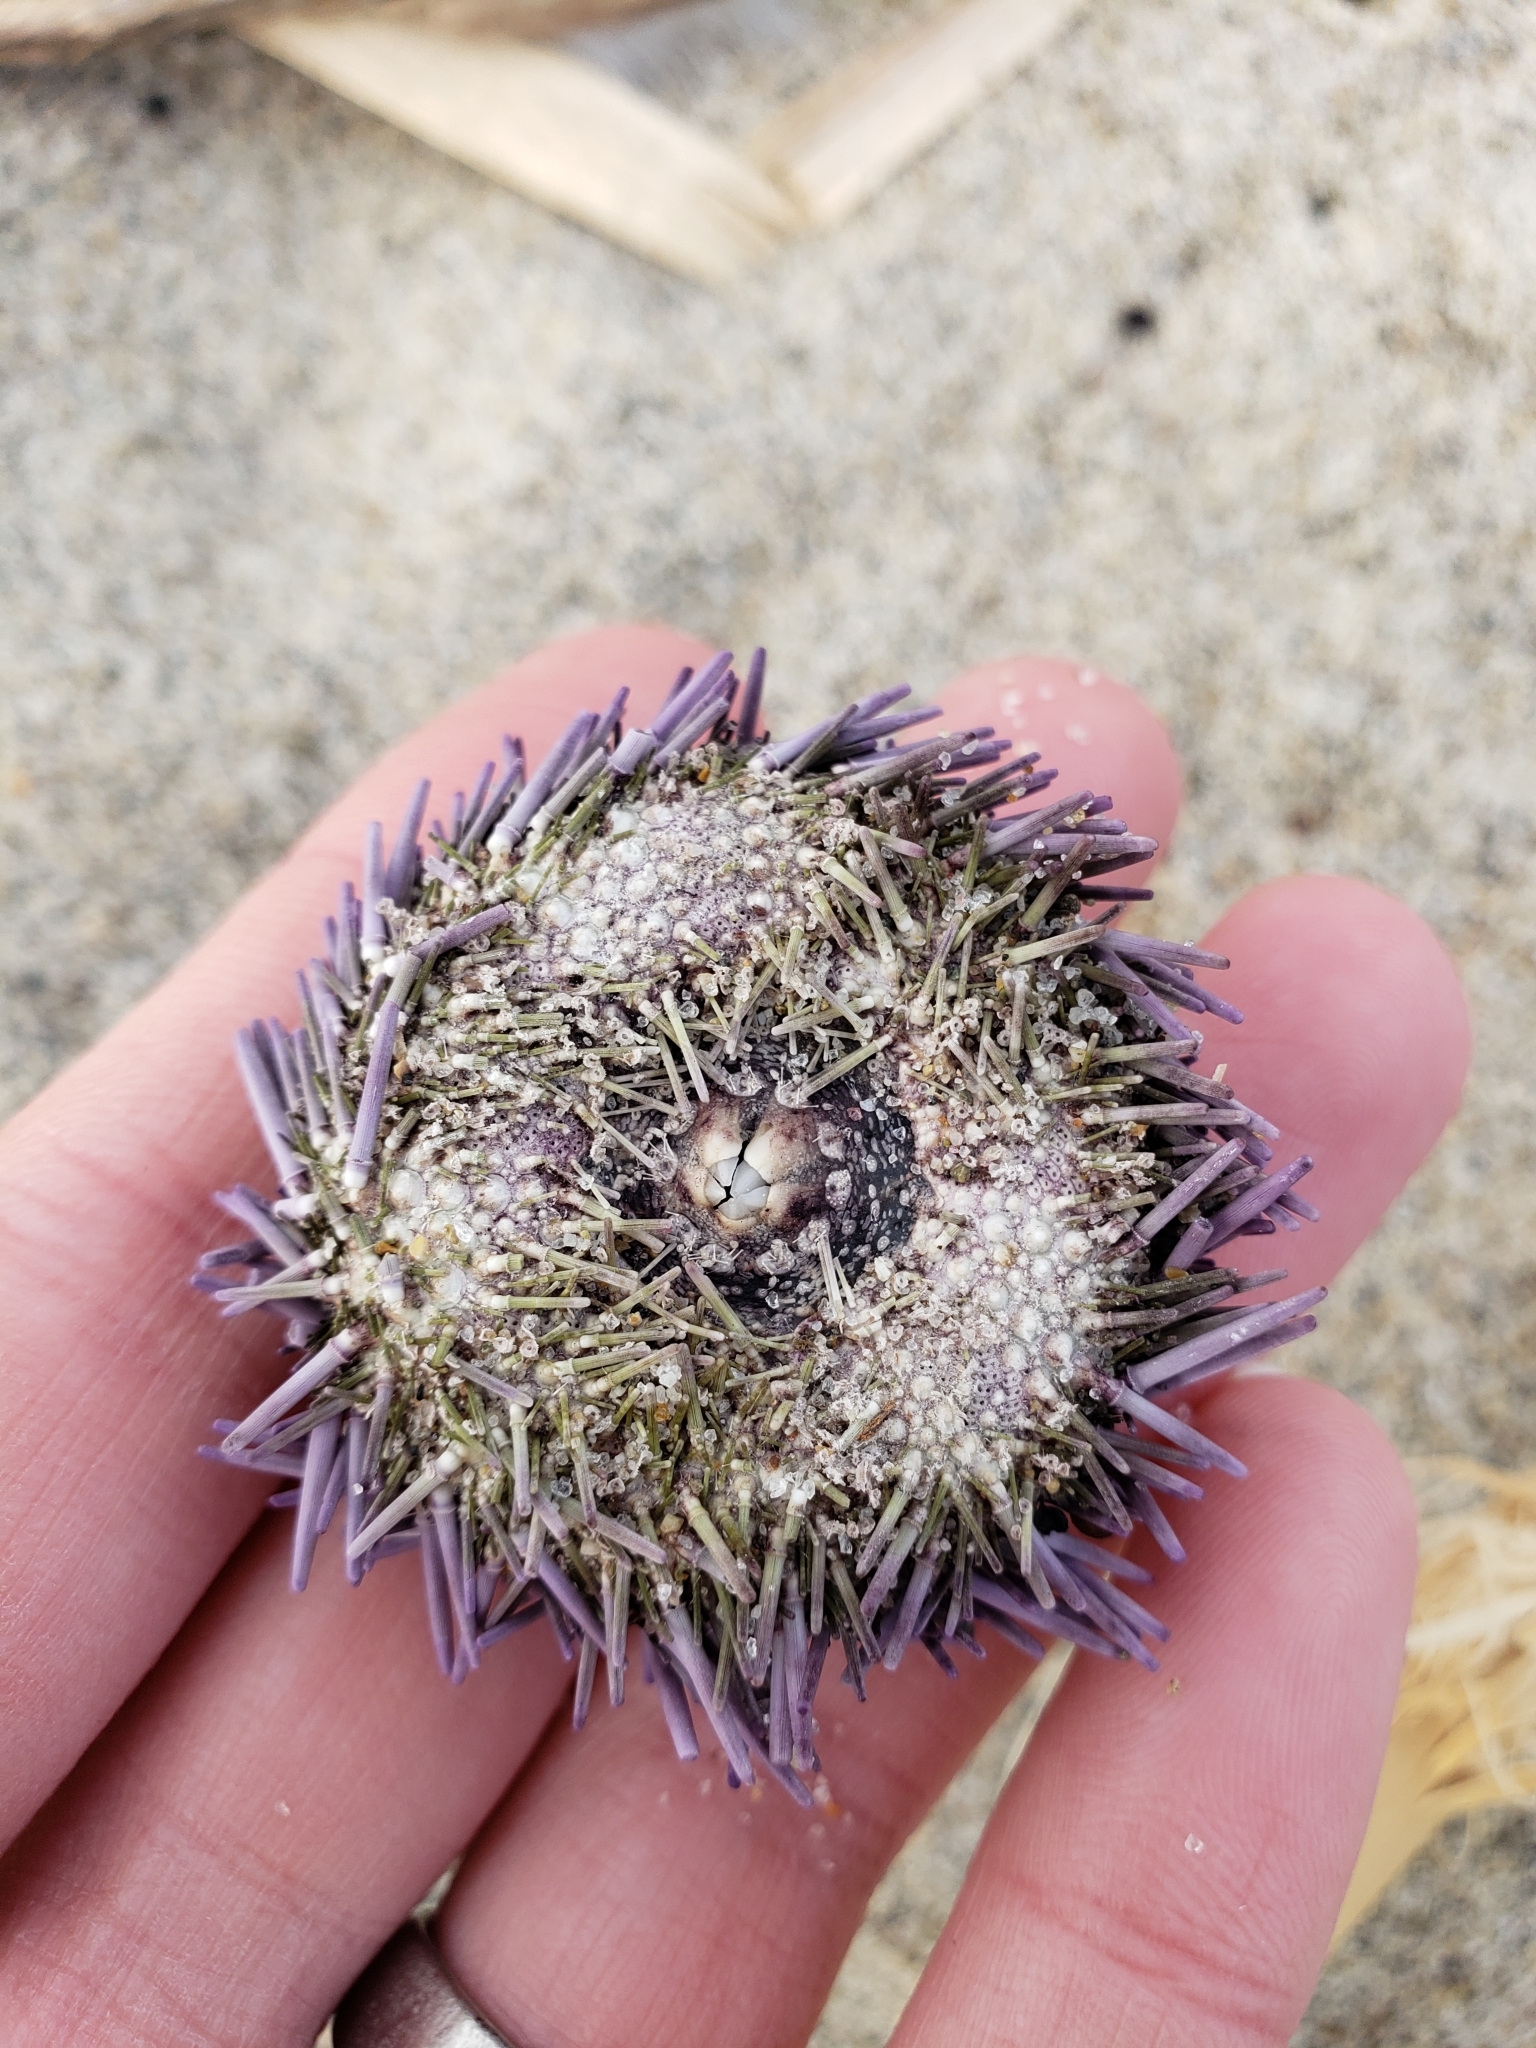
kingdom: Animalia
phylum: Echinodermata
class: Echinoidea
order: Camarodonta
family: Strongylocentrotidae
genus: Strongylocentrotus
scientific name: Strongylocentrotus purpuratus
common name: Purple sea urchin
